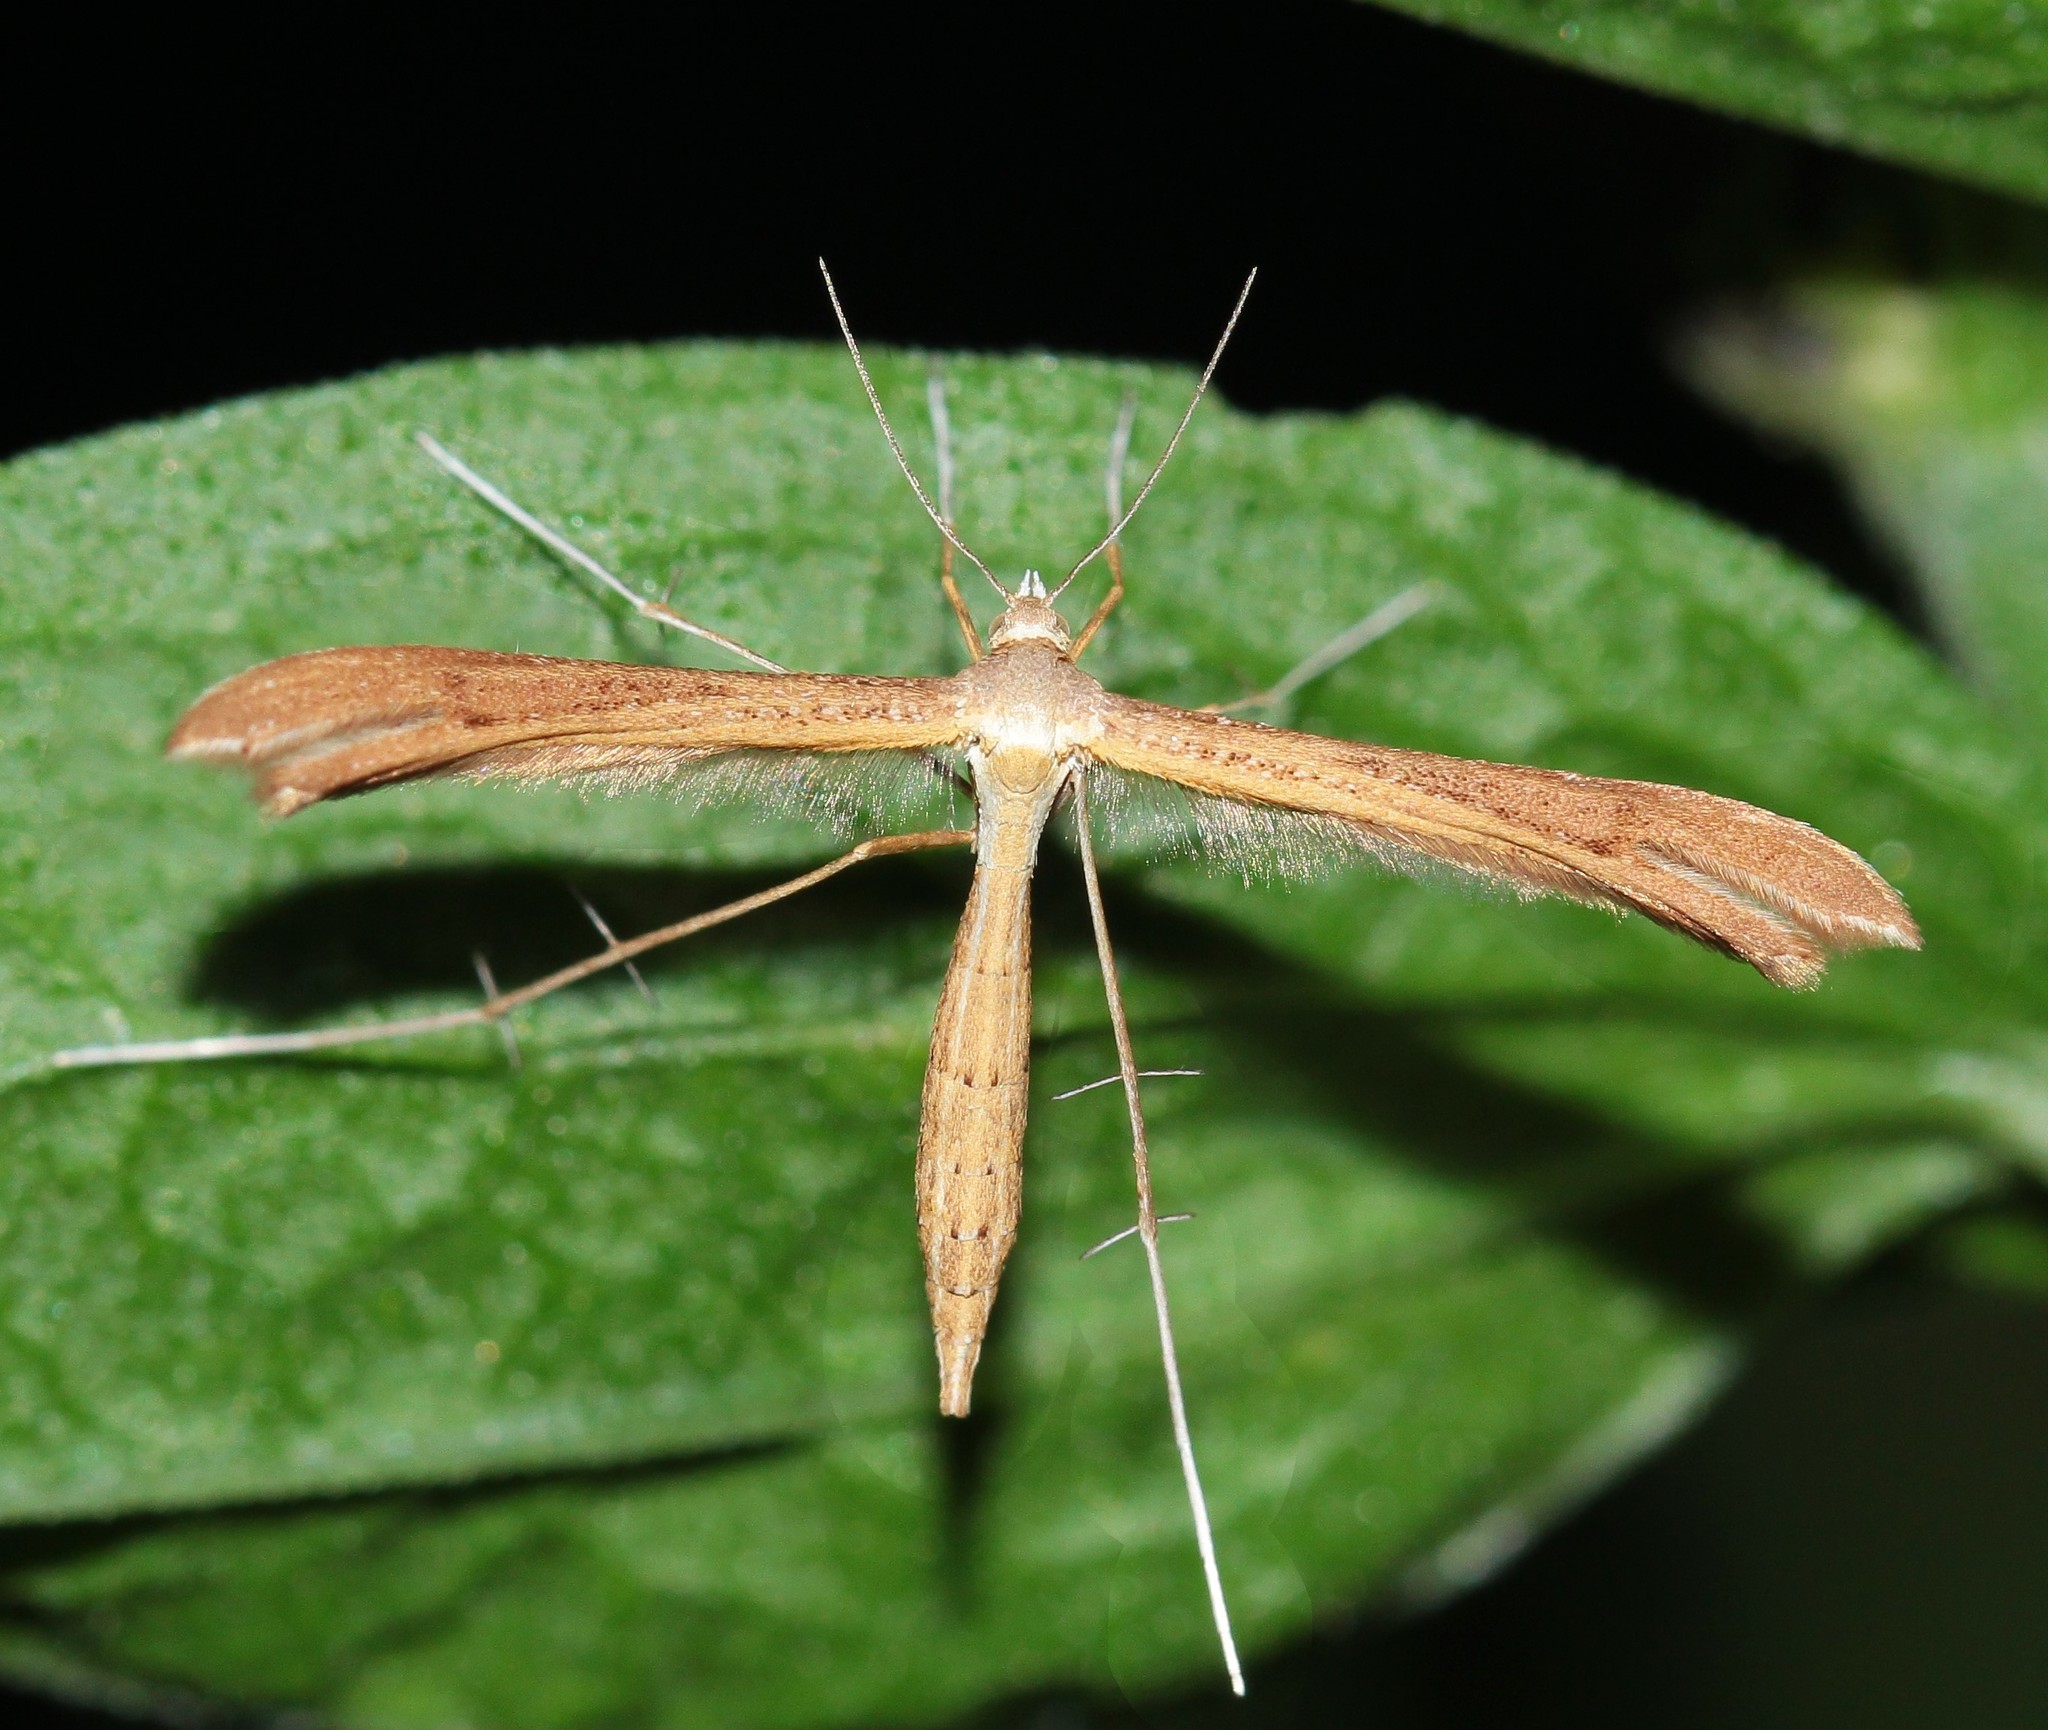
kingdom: Animalia
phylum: Arthropoda
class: Insecta
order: Lepidoptera
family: Pterophoridae
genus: Stenoptilia
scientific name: Stenoptilia pterodactyla
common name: Brown plume
